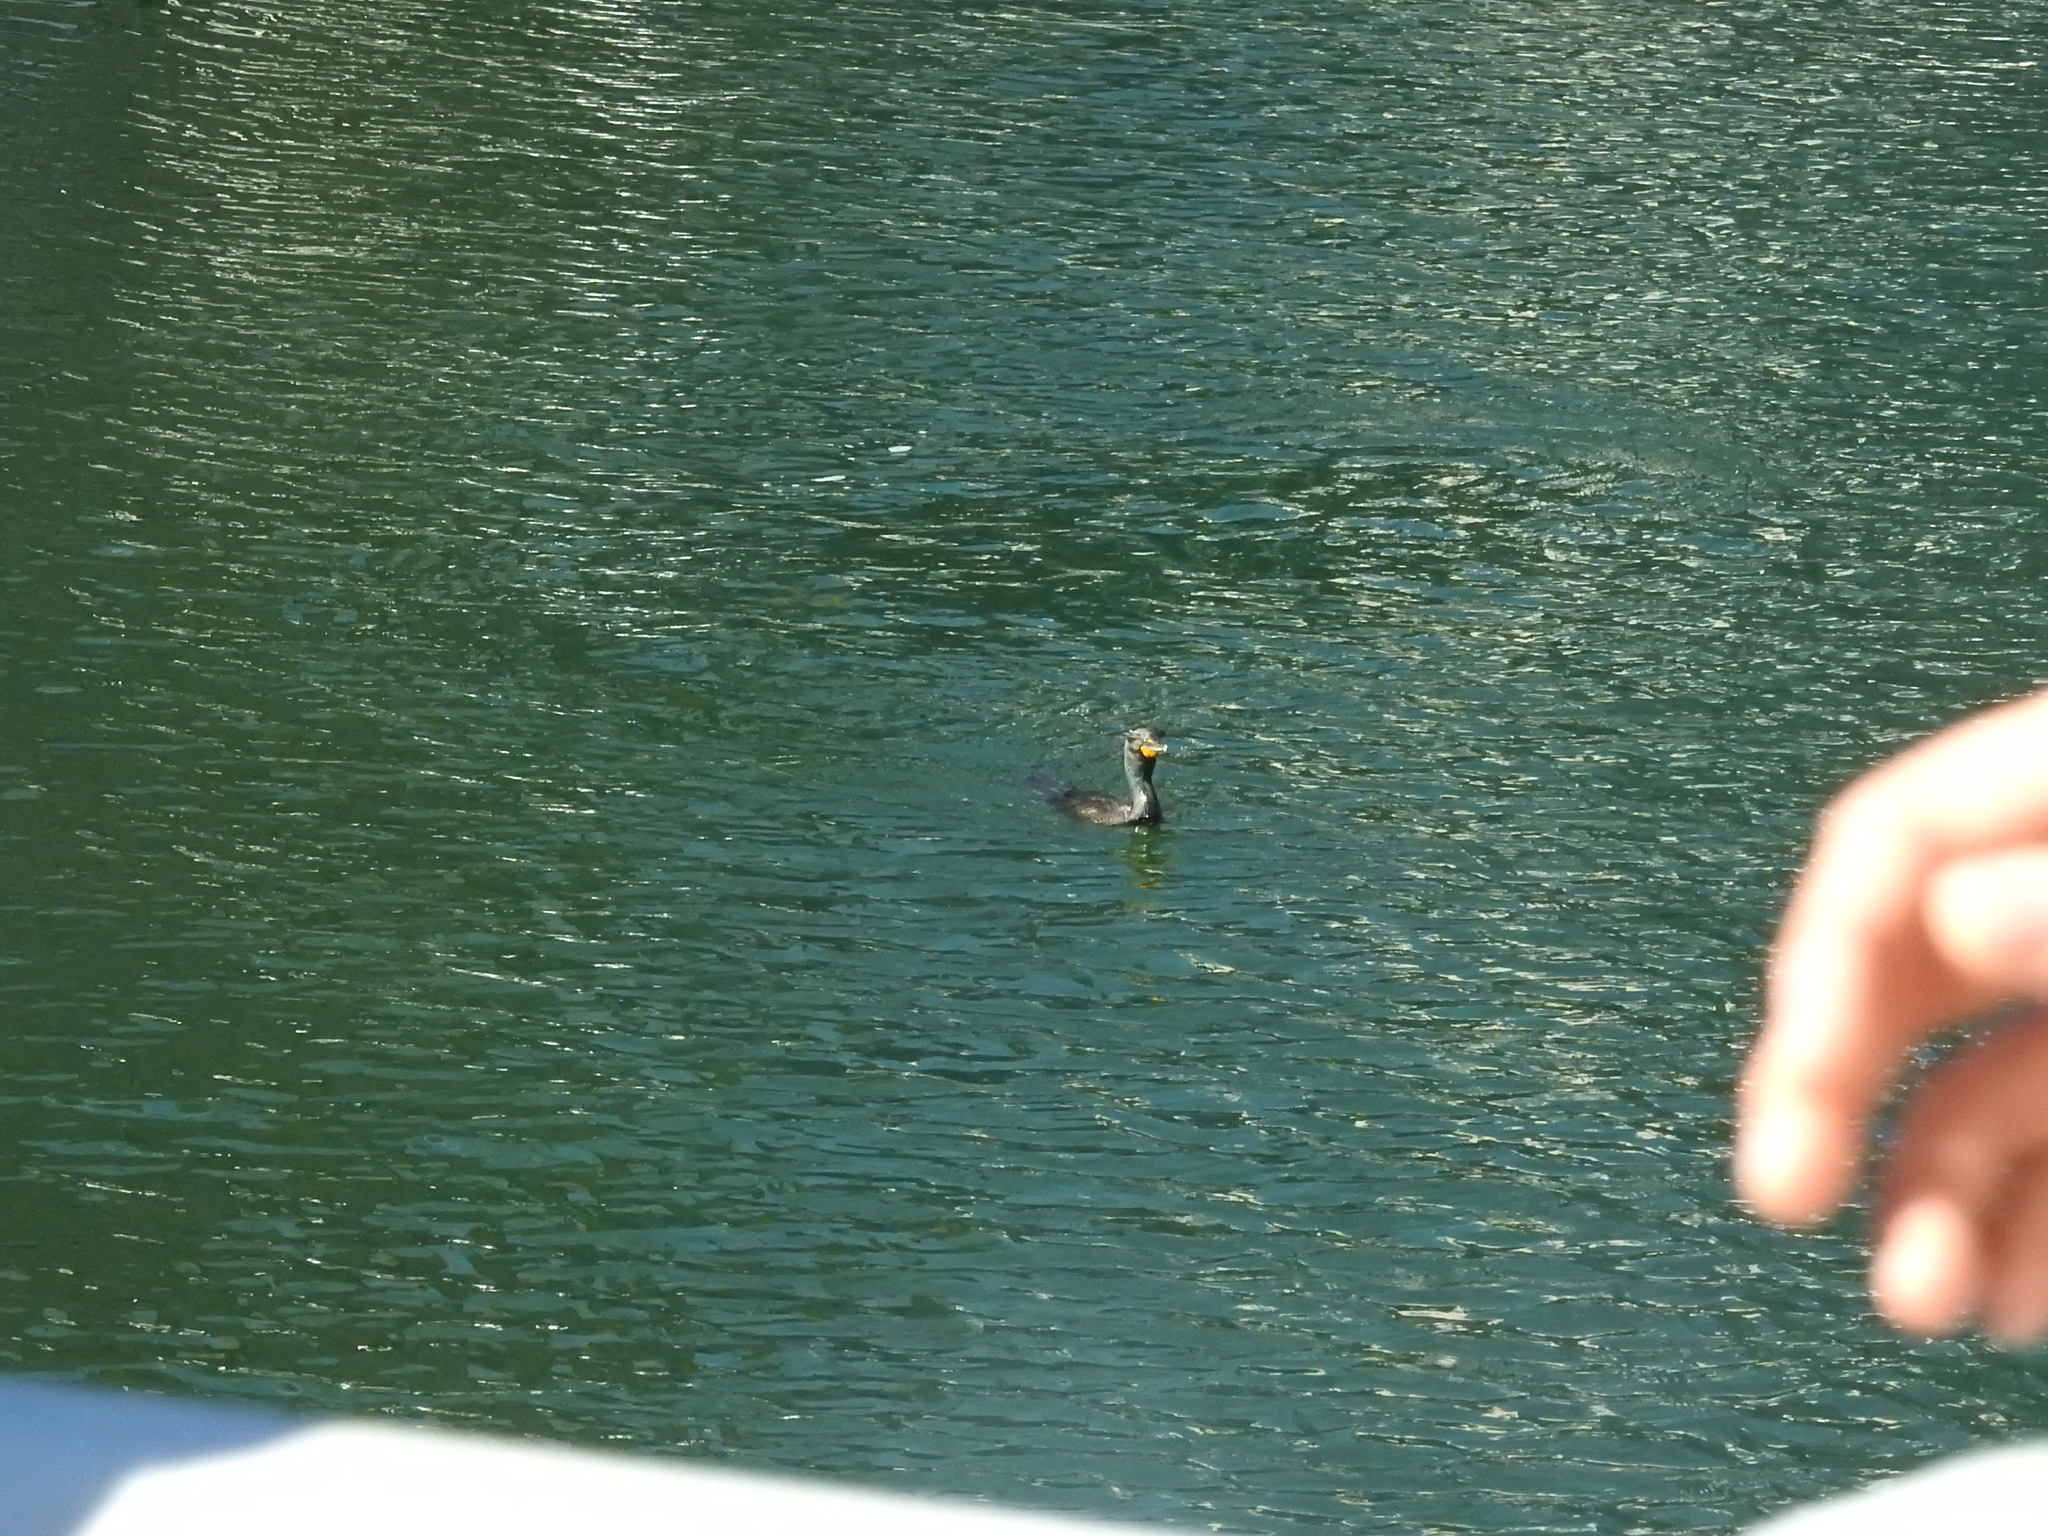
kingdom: Animalia
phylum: Chordata
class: Aves
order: Suliformes
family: Phalacrocoracidae
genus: Phalacrocorax
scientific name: Phalacrocorax auritus
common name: Double-crested cormorant
